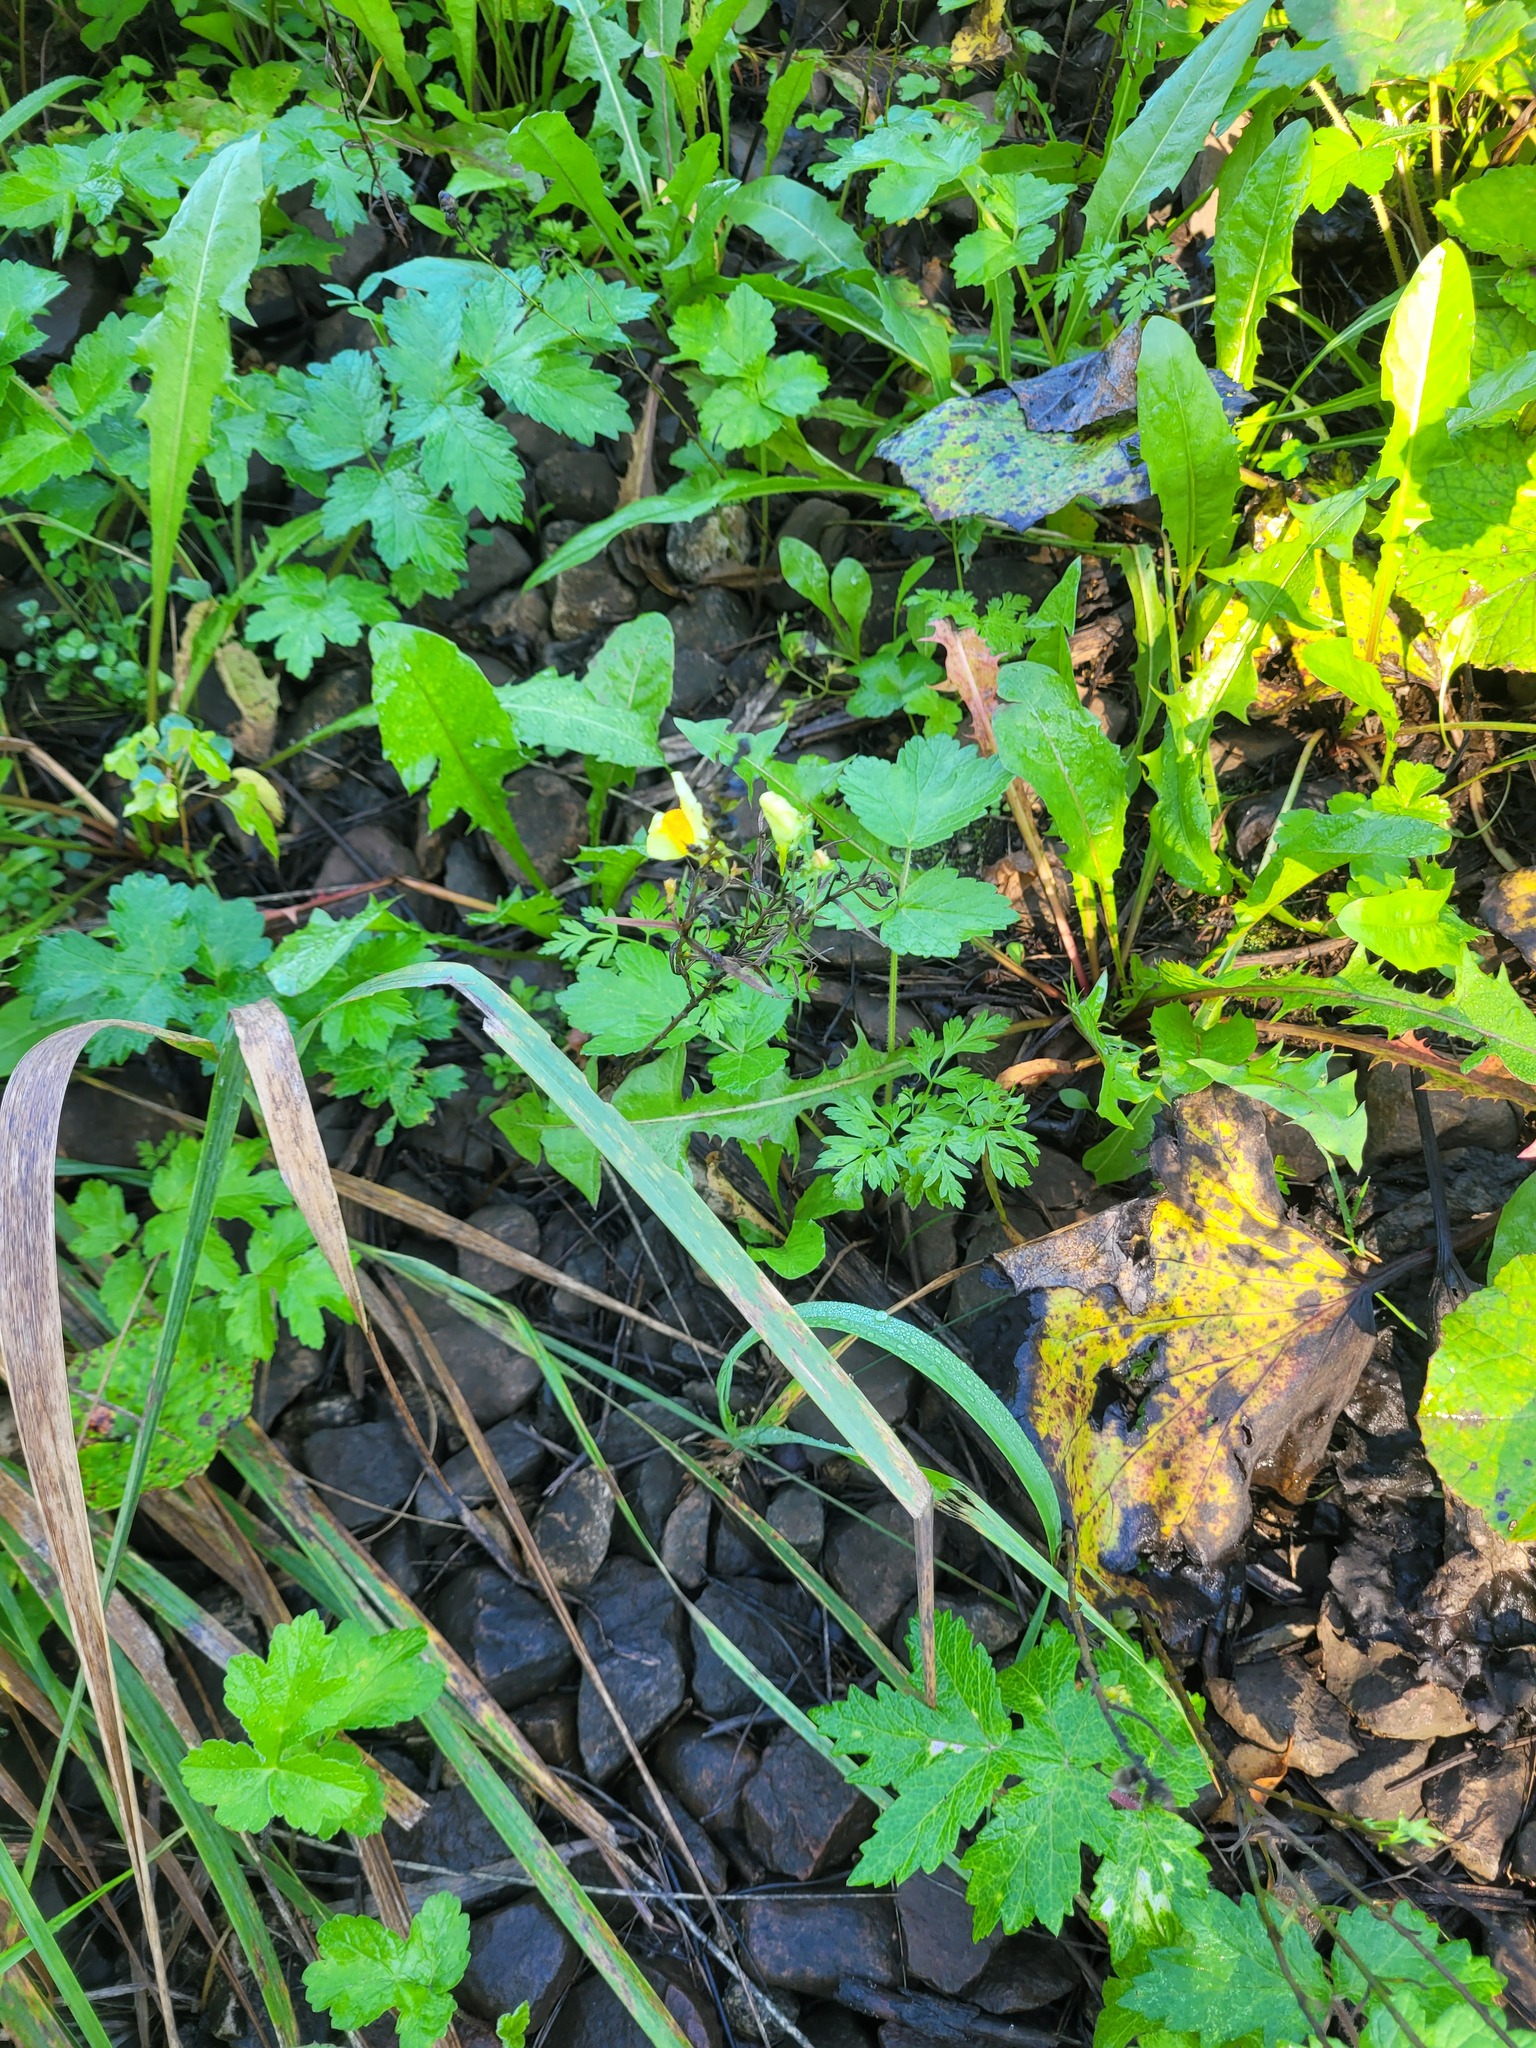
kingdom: Plantae
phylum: Tracheophyta
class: Magnoliopsida
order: Lamiales
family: Plantaginaceae
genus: Linaria
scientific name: Linaria vulgaris
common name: Butter and eggs
